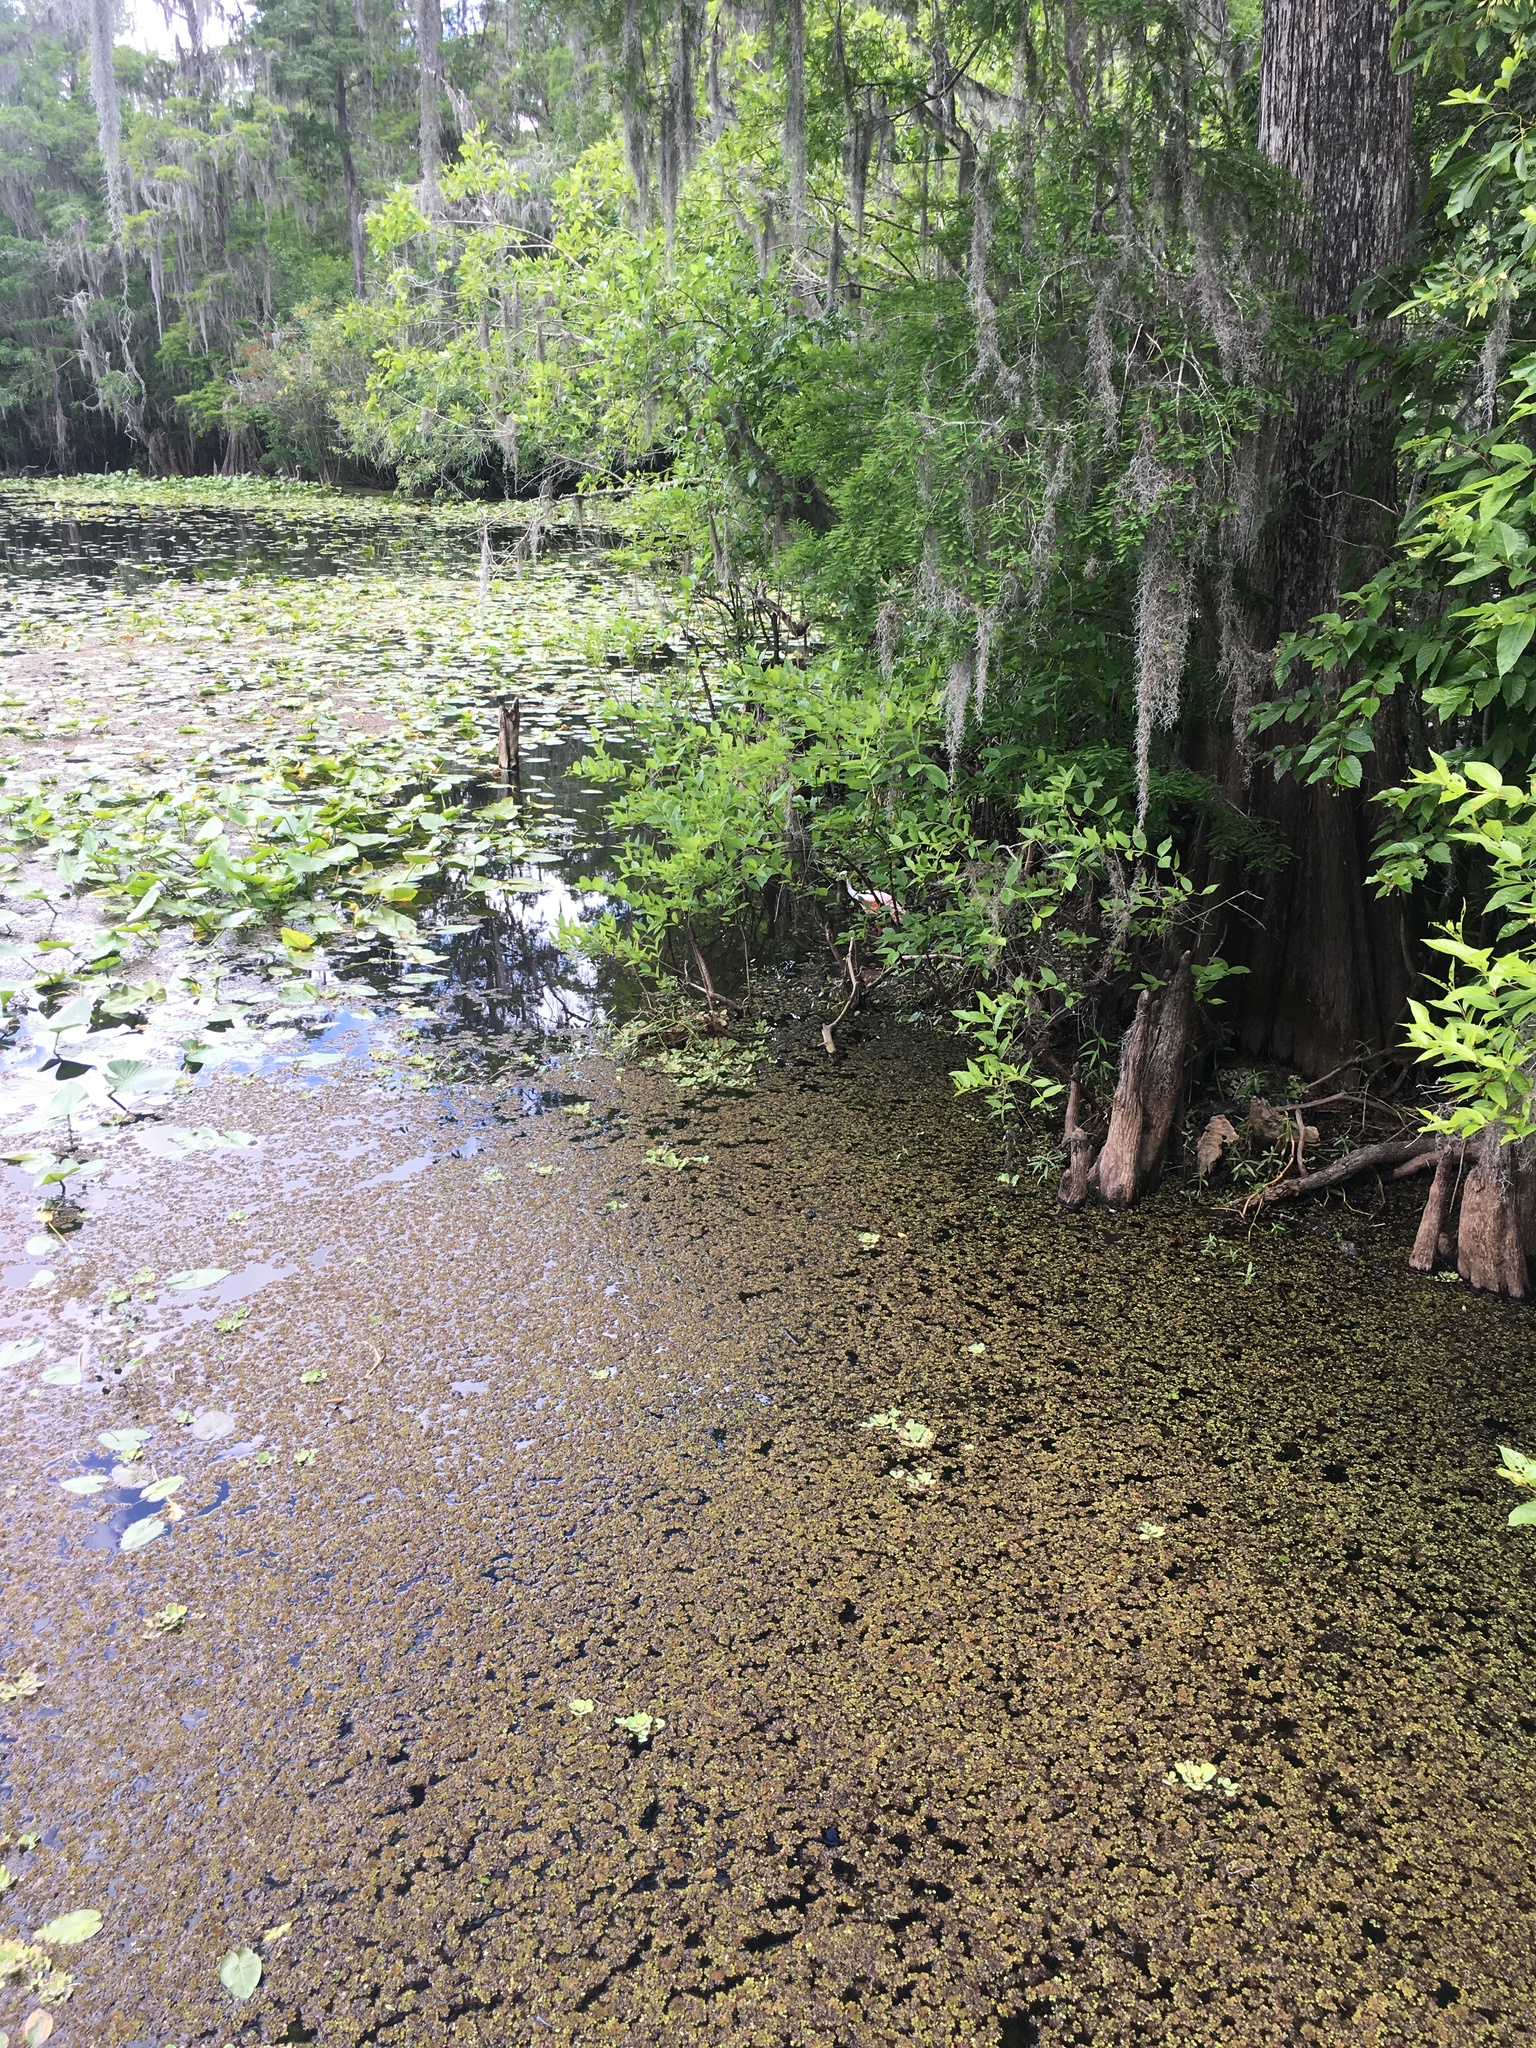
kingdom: Animalia
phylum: Chordata
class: Aves
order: Pelecaniformes
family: Threskiornithidae
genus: Platalea
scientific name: Platalea ajaja
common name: Roseate spoonbill
